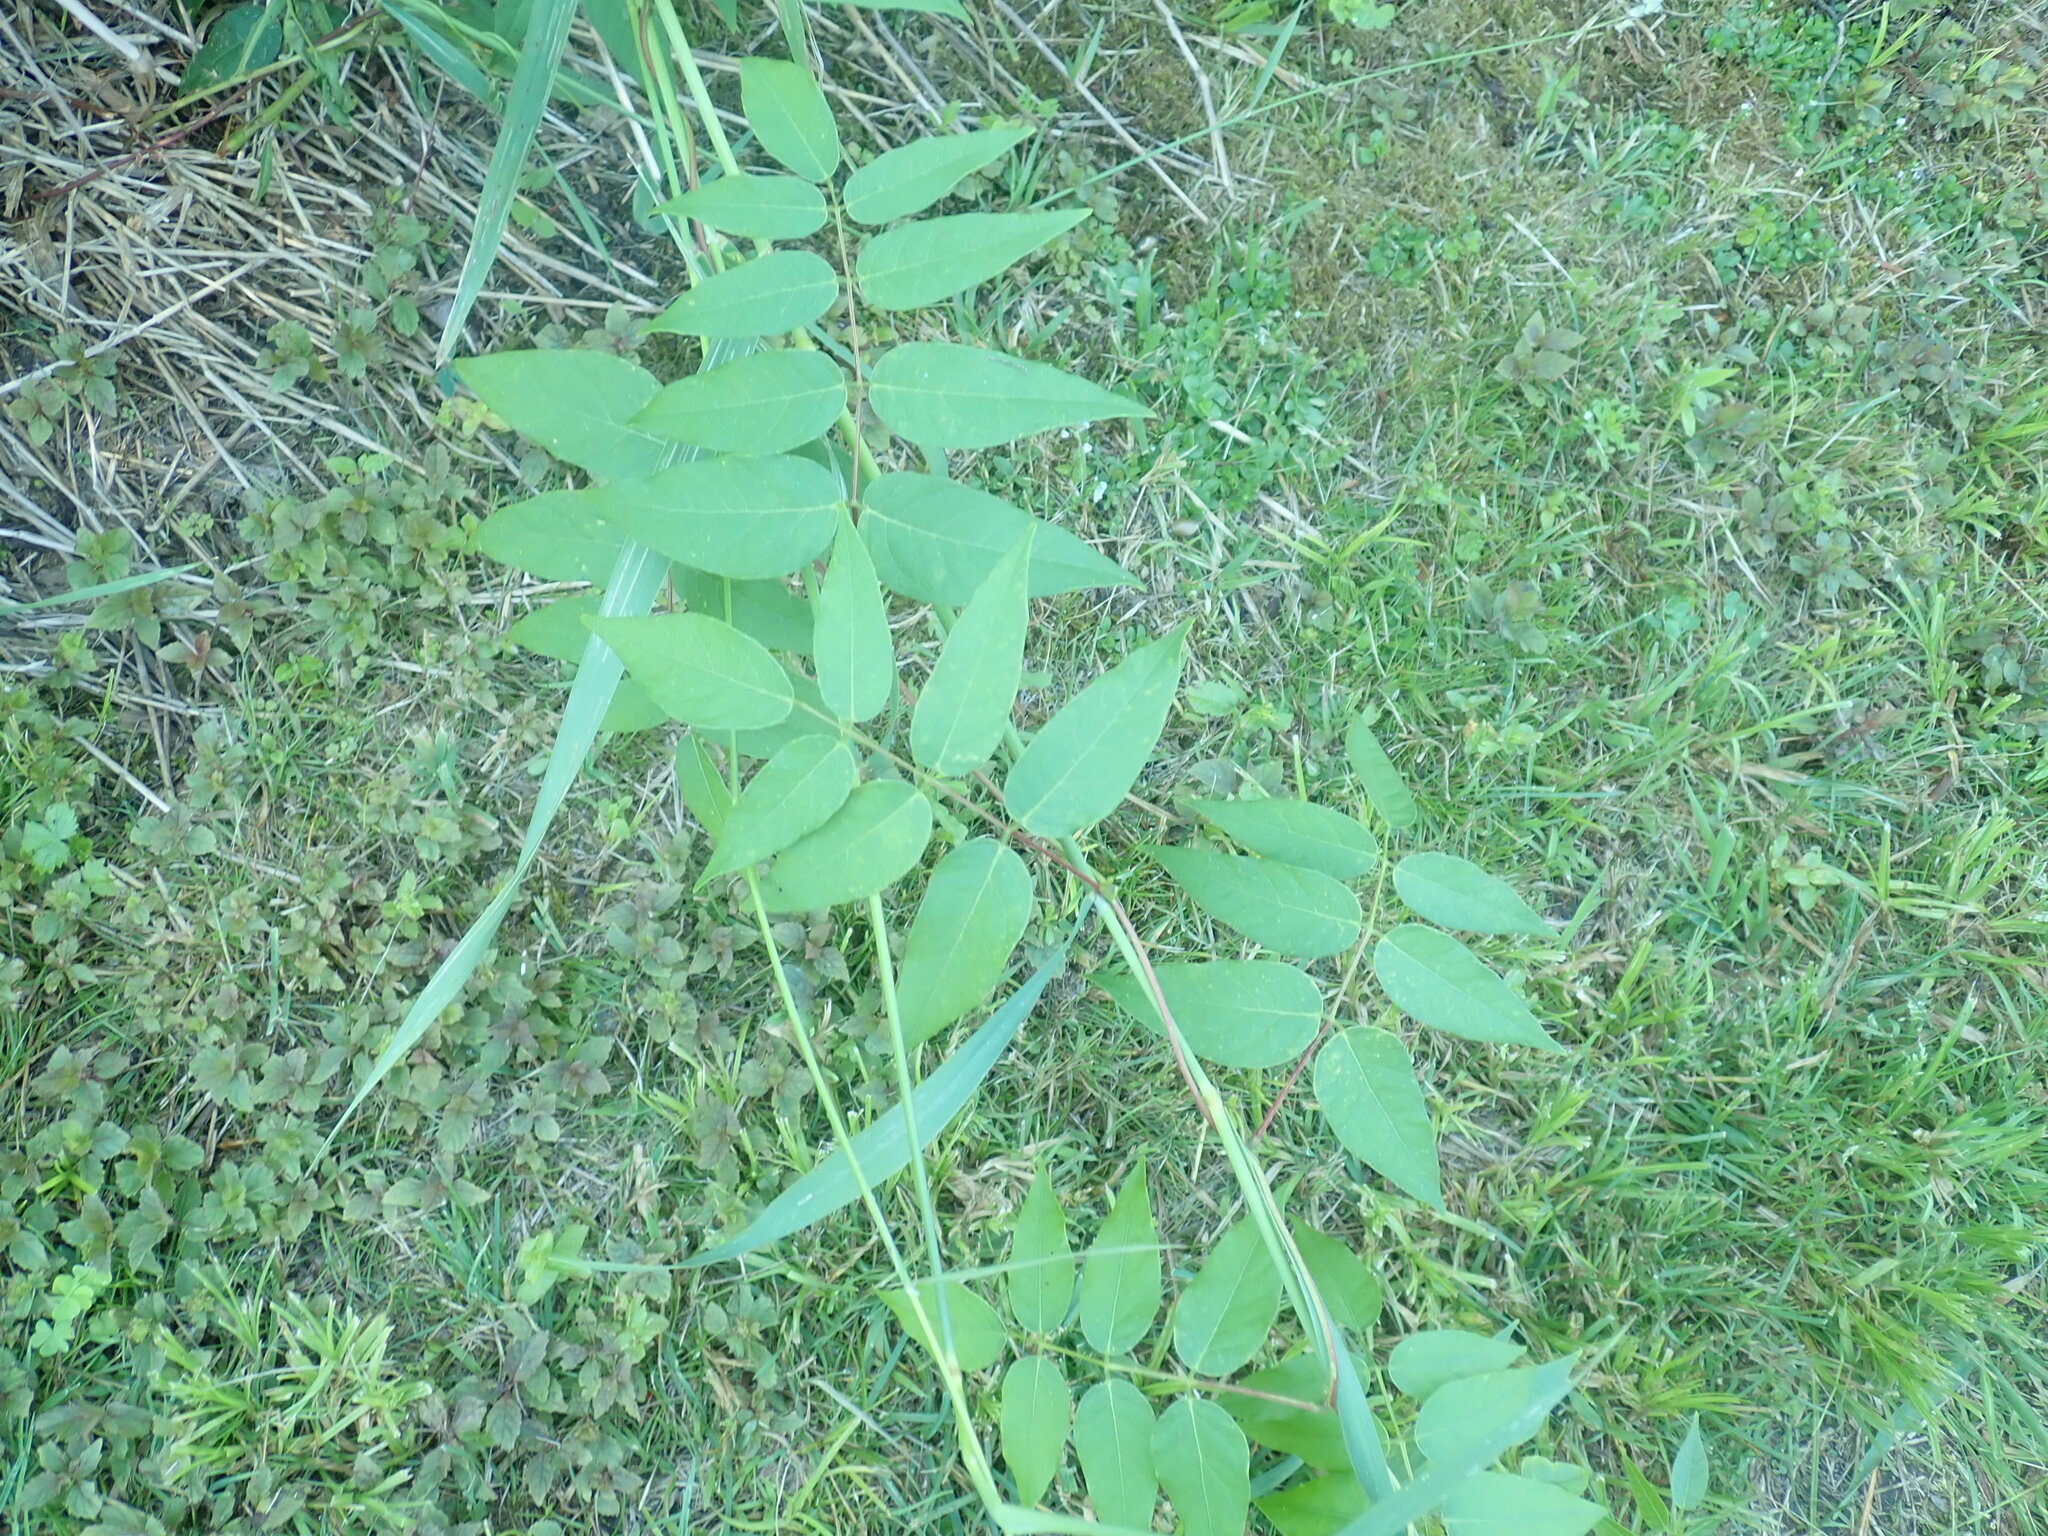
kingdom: Plantae
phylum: Tracheophyta
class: Magnoliopsida
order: Fabales
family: Fabaceae
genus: Apios
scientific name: Apios americana
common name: American potato-bean
